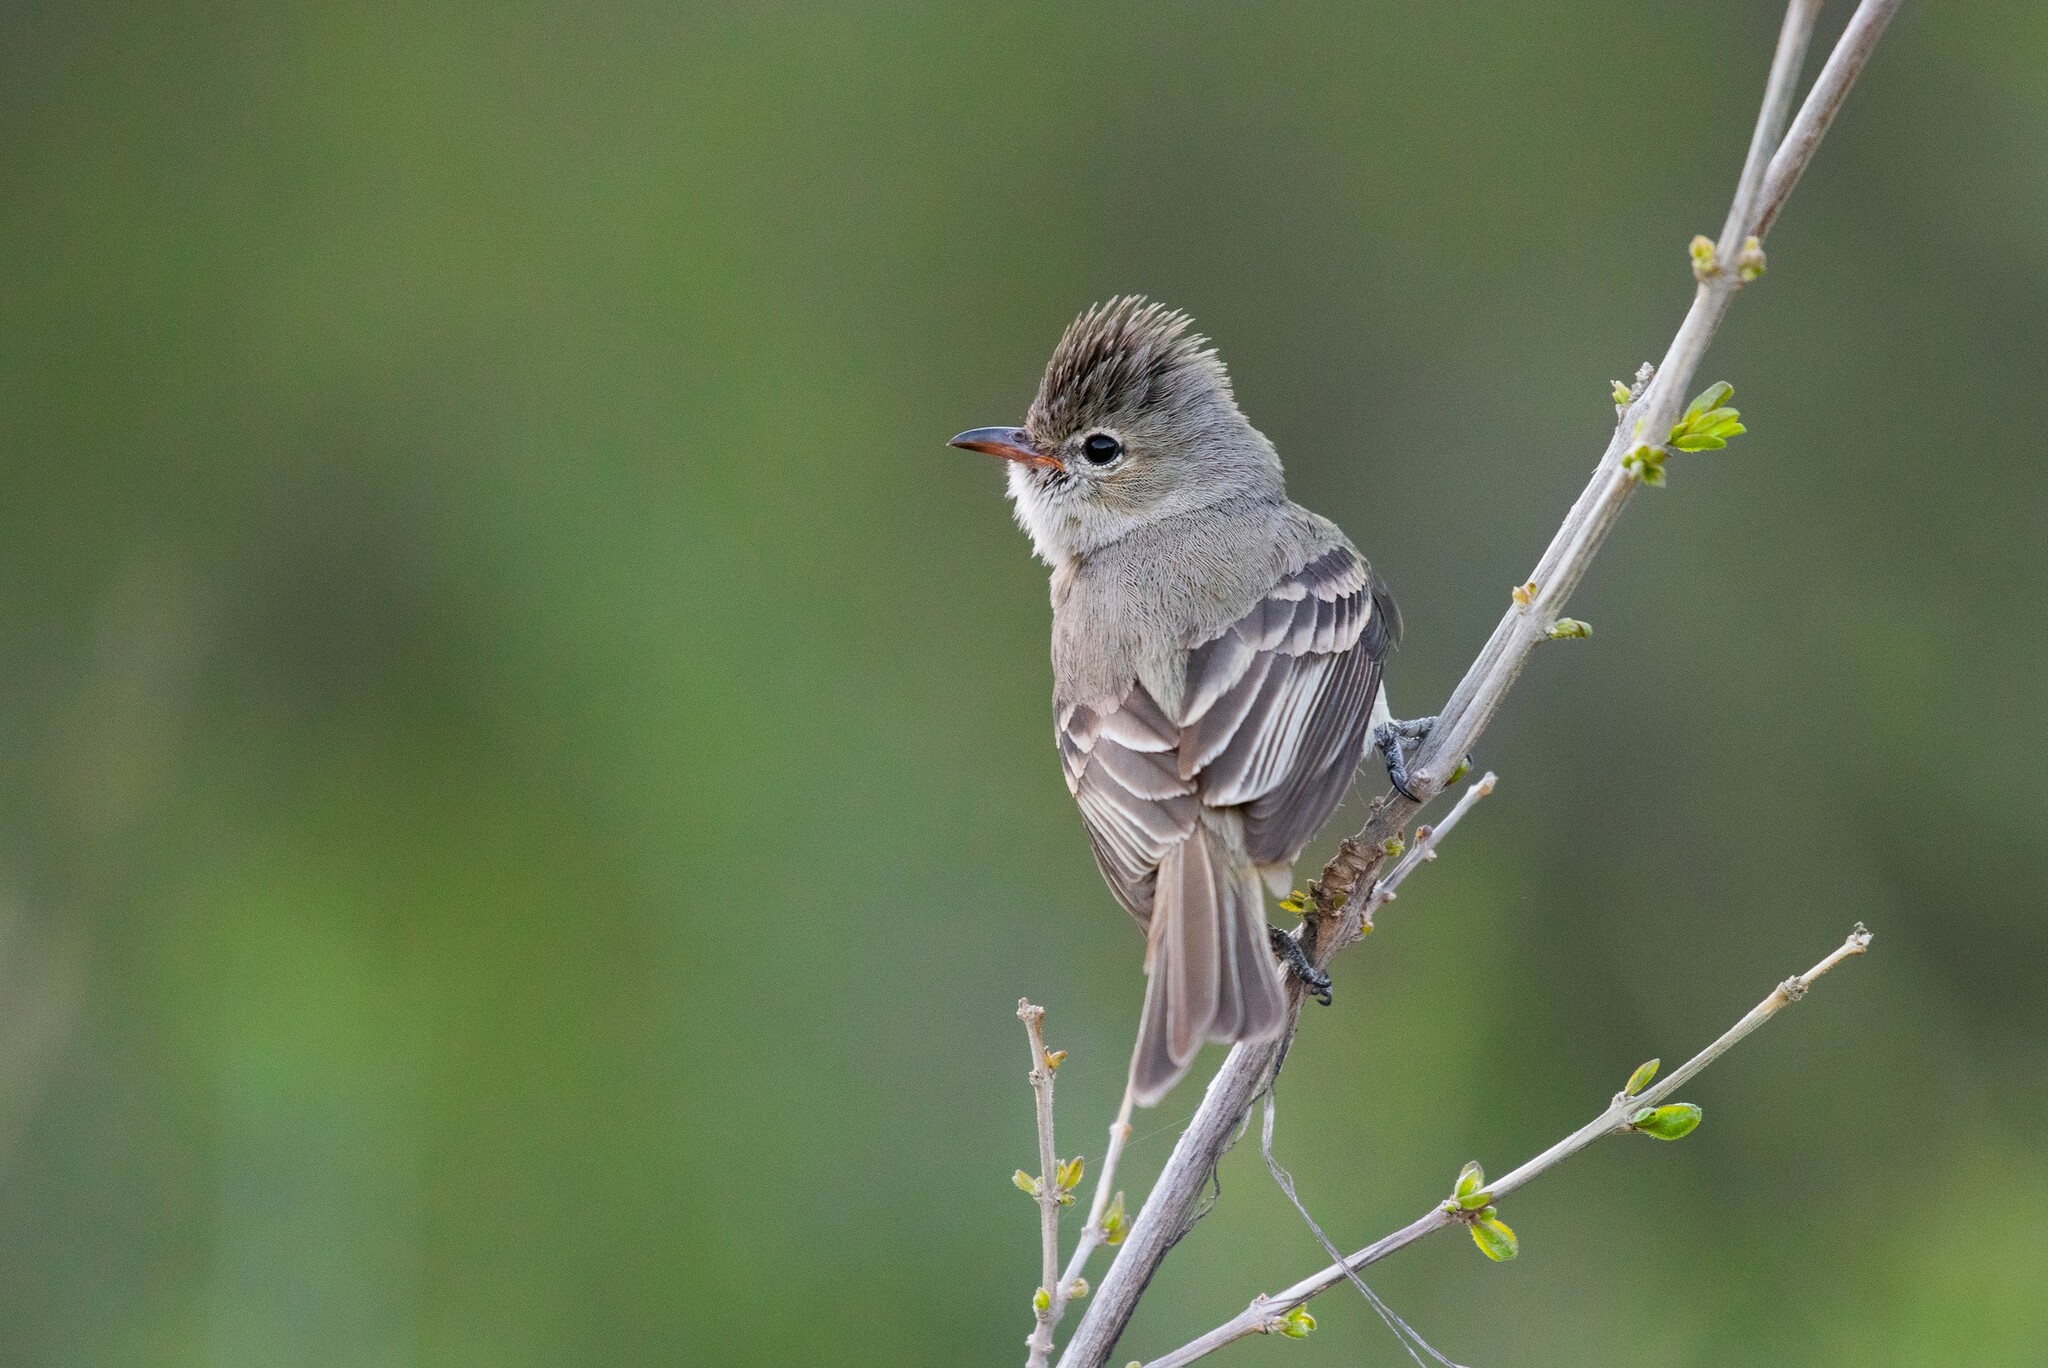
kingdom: Animalia
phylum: Chordata
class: Aves
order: Passeriformes
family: Tyrannidae
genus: Camptostoma
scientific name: Camptostoma imberbe
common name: Northern beardless-tyrannulet
